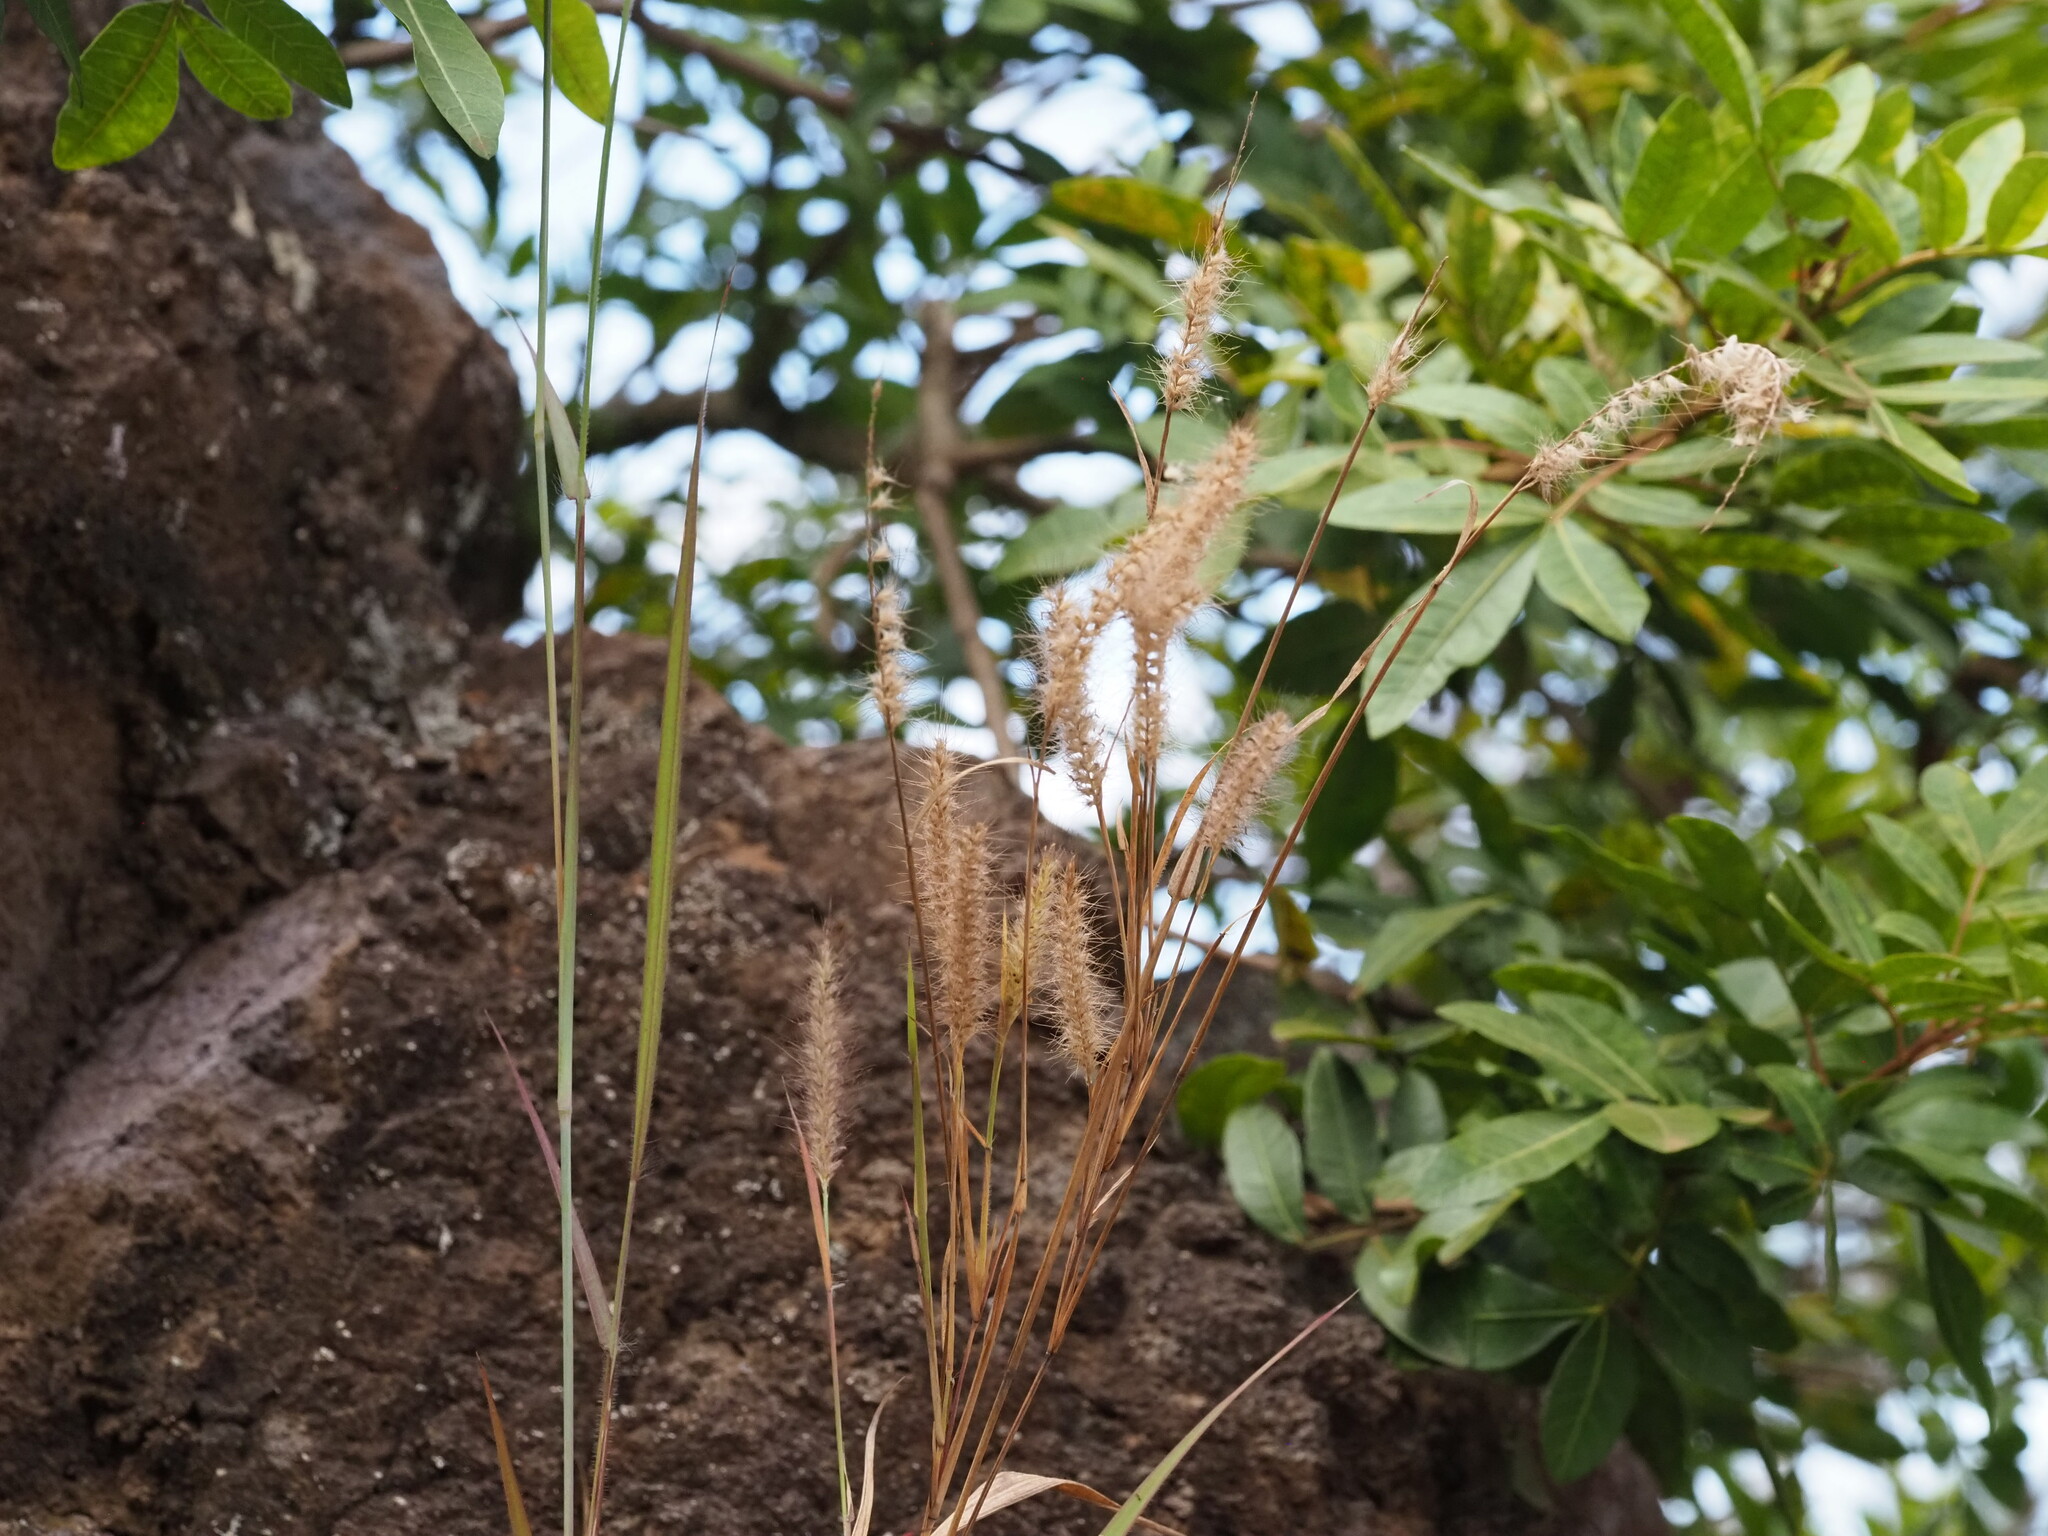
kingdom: Plantae
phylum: Tracheophyta
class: Liliopsida
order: Poales
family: Poaceae
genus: Cenchrus
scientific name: Cenchrus setosus
